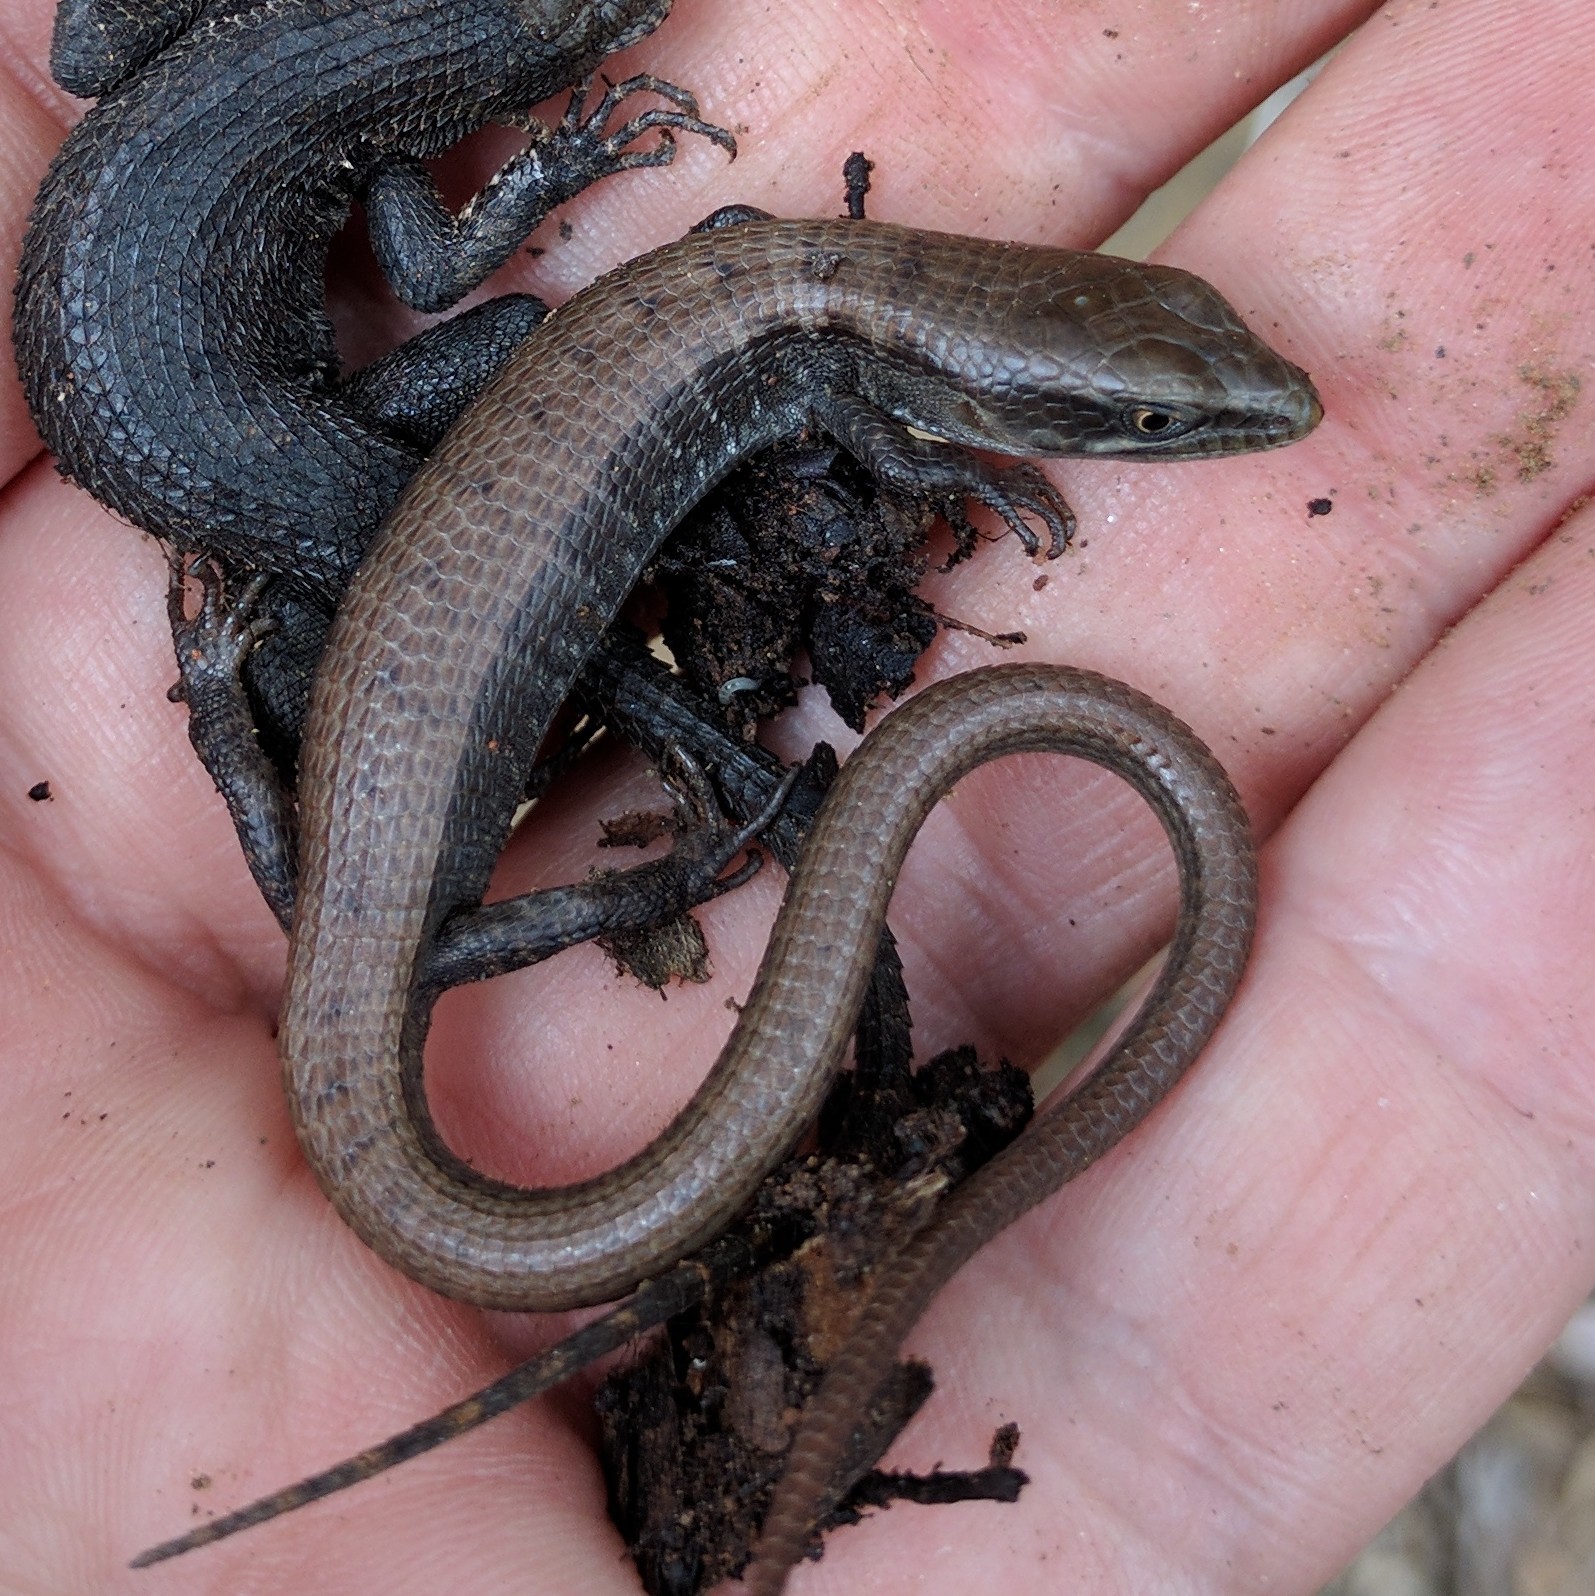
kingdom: Animalia
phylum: Chordata
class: Squamata
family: Anguidae
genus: Elgaria
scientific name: Elgaria multicarinata
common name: Southern alligator lizard
